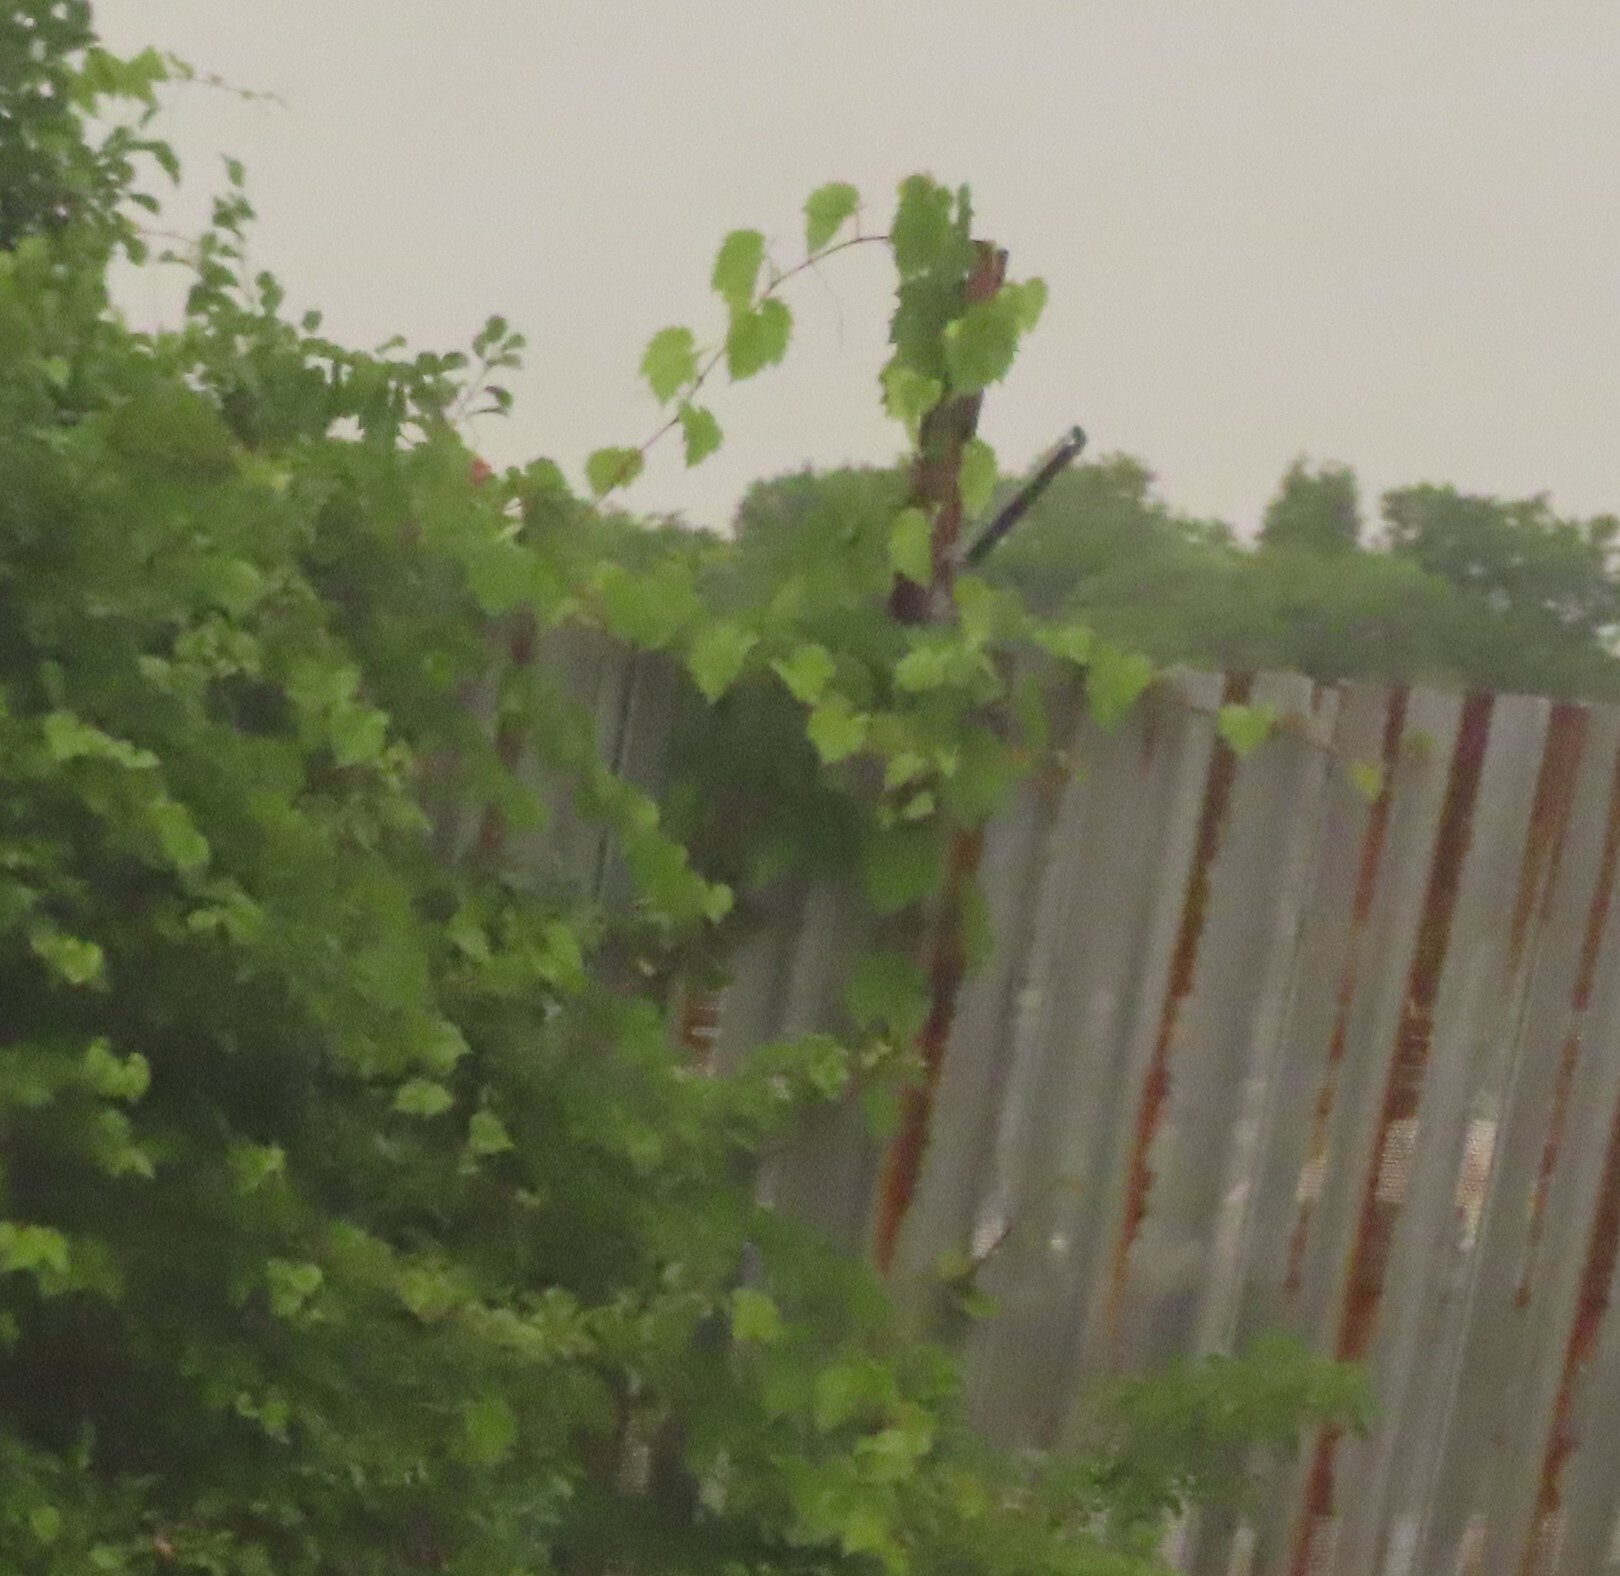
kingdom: Plantae
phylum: Tracheophyta
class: Magnoliopsida
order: Vitales
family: Vitaceae
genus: Vitis
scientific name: Vitis riparia
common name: Frost grape
